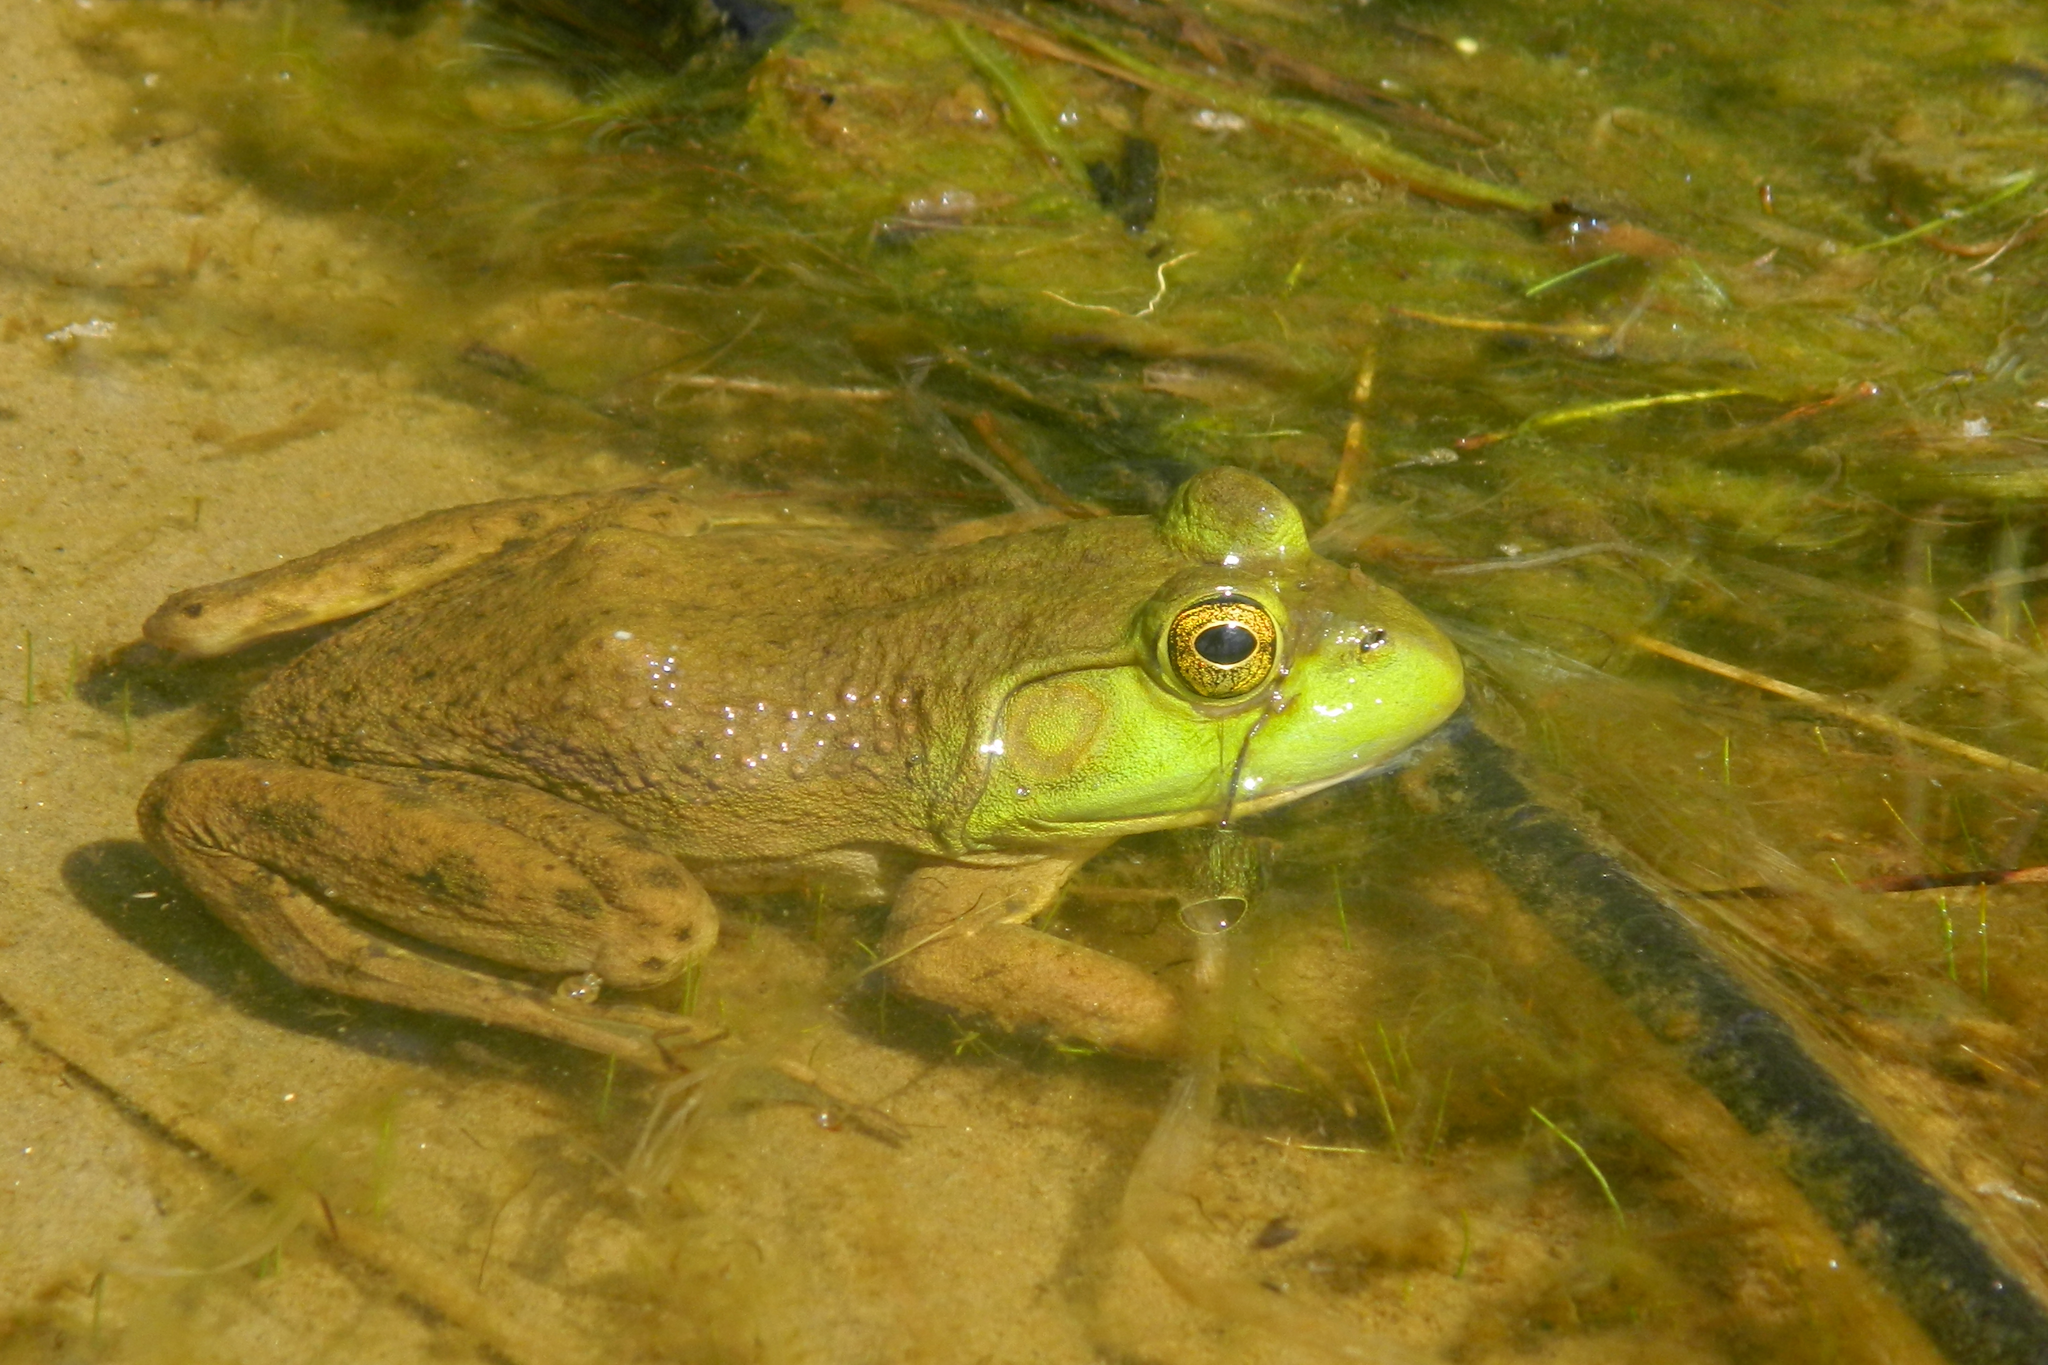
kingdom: Animalia
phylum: Chordata
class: Amphibia
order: Anura
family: Ranidae
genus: Lithobates
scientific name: Lithobates catesbeianus
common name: American bullfrog
